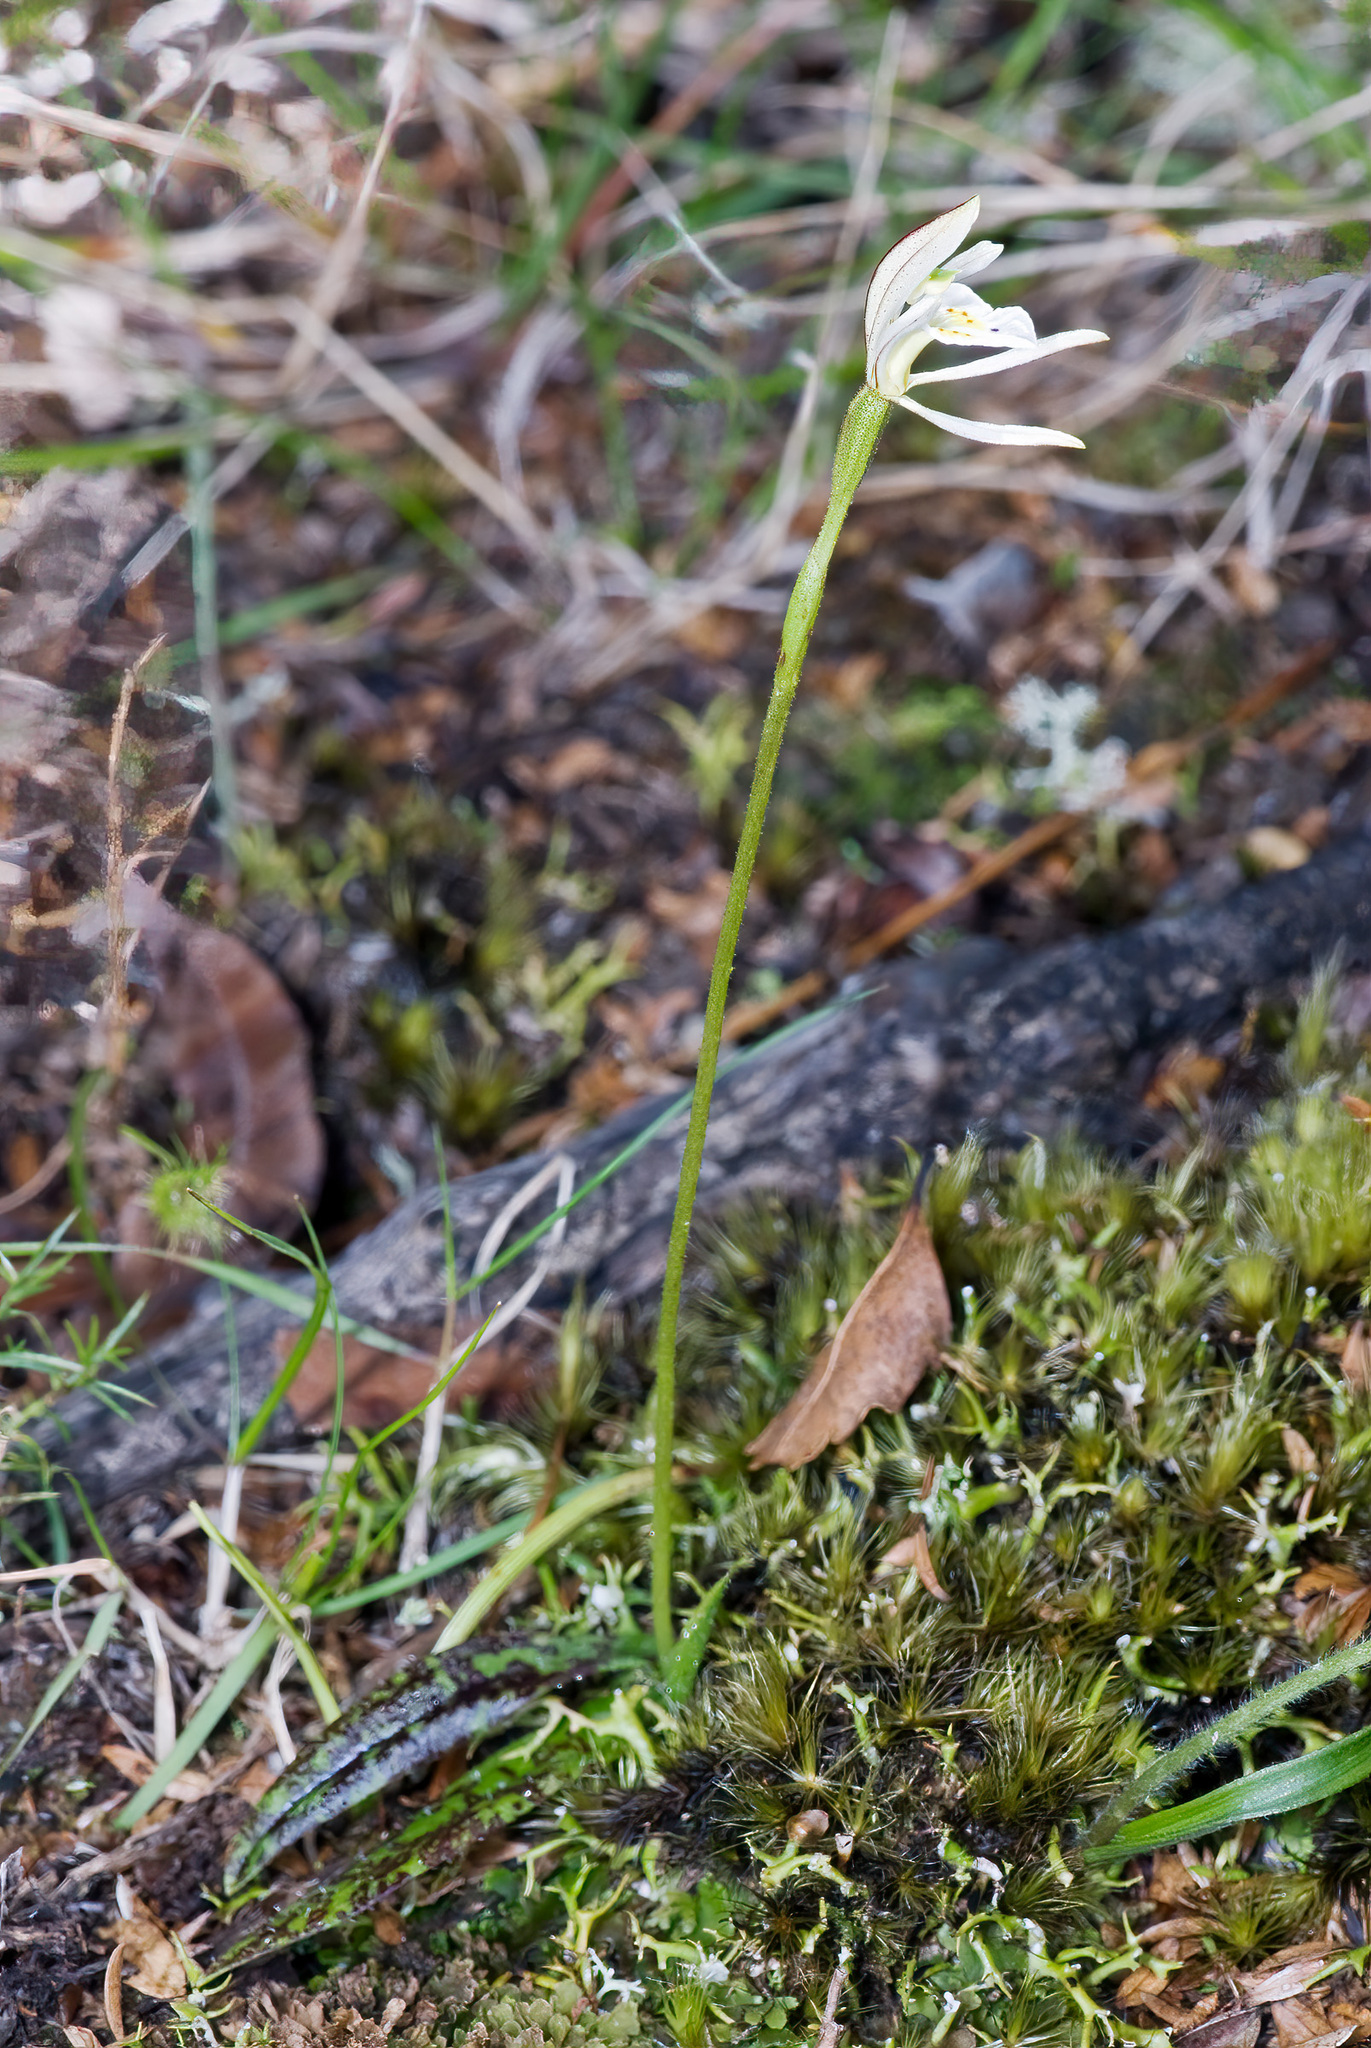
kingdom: Plantae
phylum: Tracheophyta
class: Liliopsida
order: Asparagales
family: Orchidaceae
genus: Aporostylis
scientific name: Aporostylis bifolia
